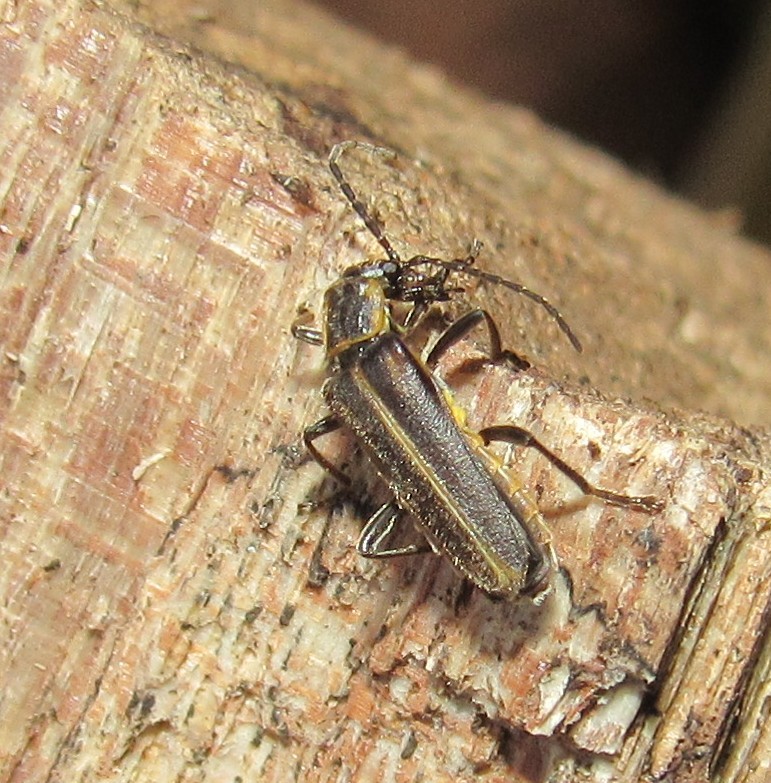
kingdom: Animalia
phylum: Arthropoda
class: Insecta
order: Coleoptera
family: Cantharidae
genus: Chauliognathus
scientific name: Chauliognathus
